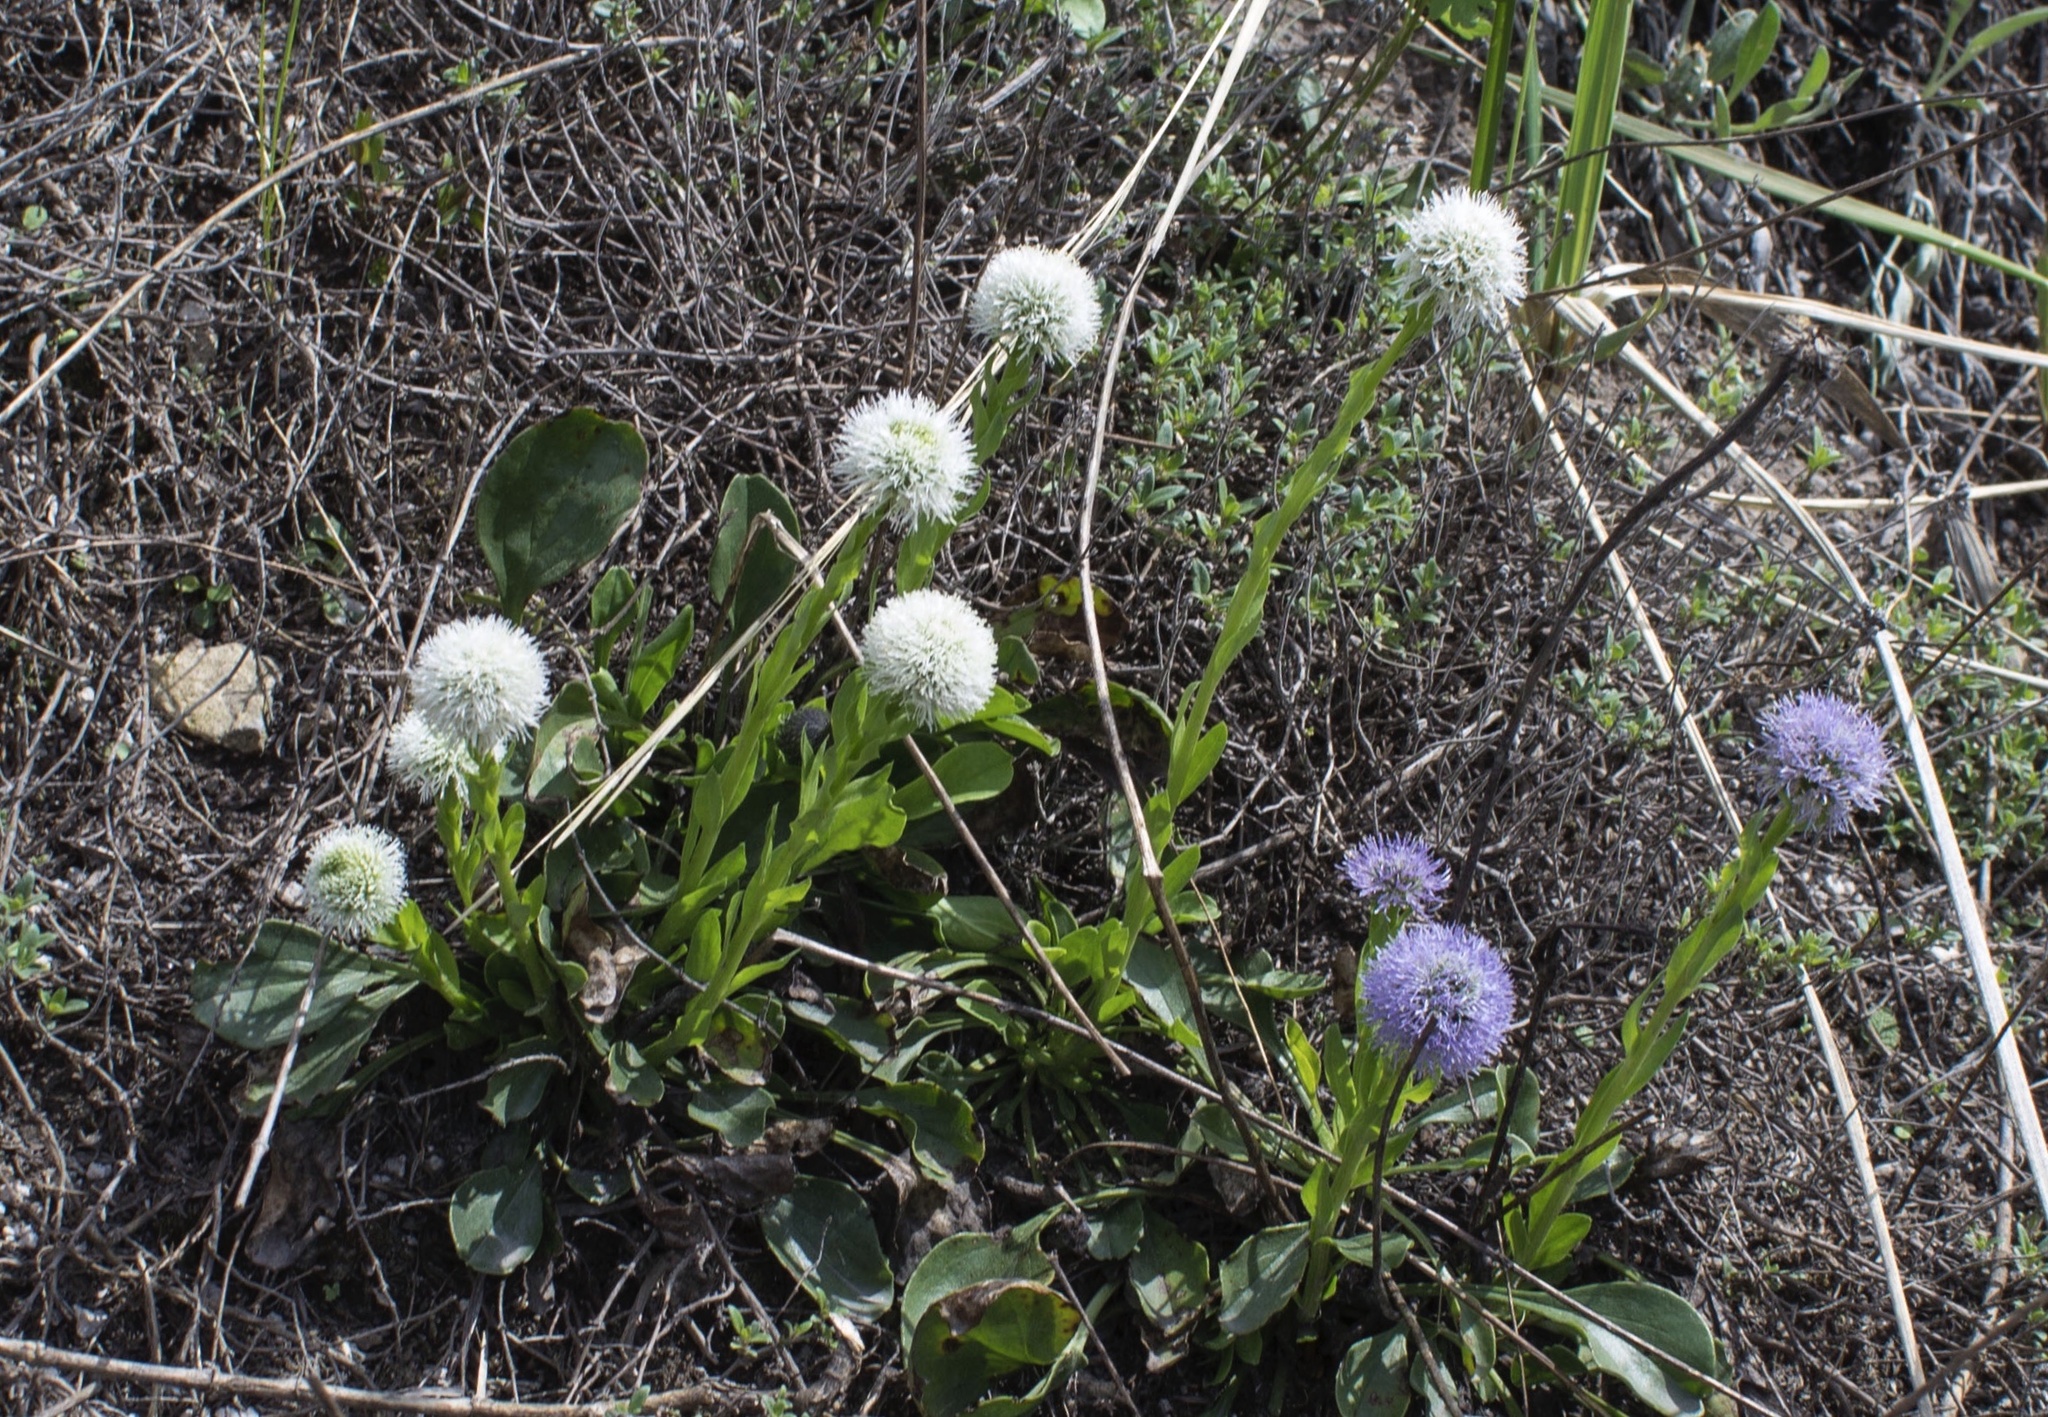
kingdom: Plantae
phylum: Tracheophyta
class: Magnoliopsida
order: Lamiales
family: Plantaginaceae
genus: Globularia
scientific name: Globularia bisnagarica
